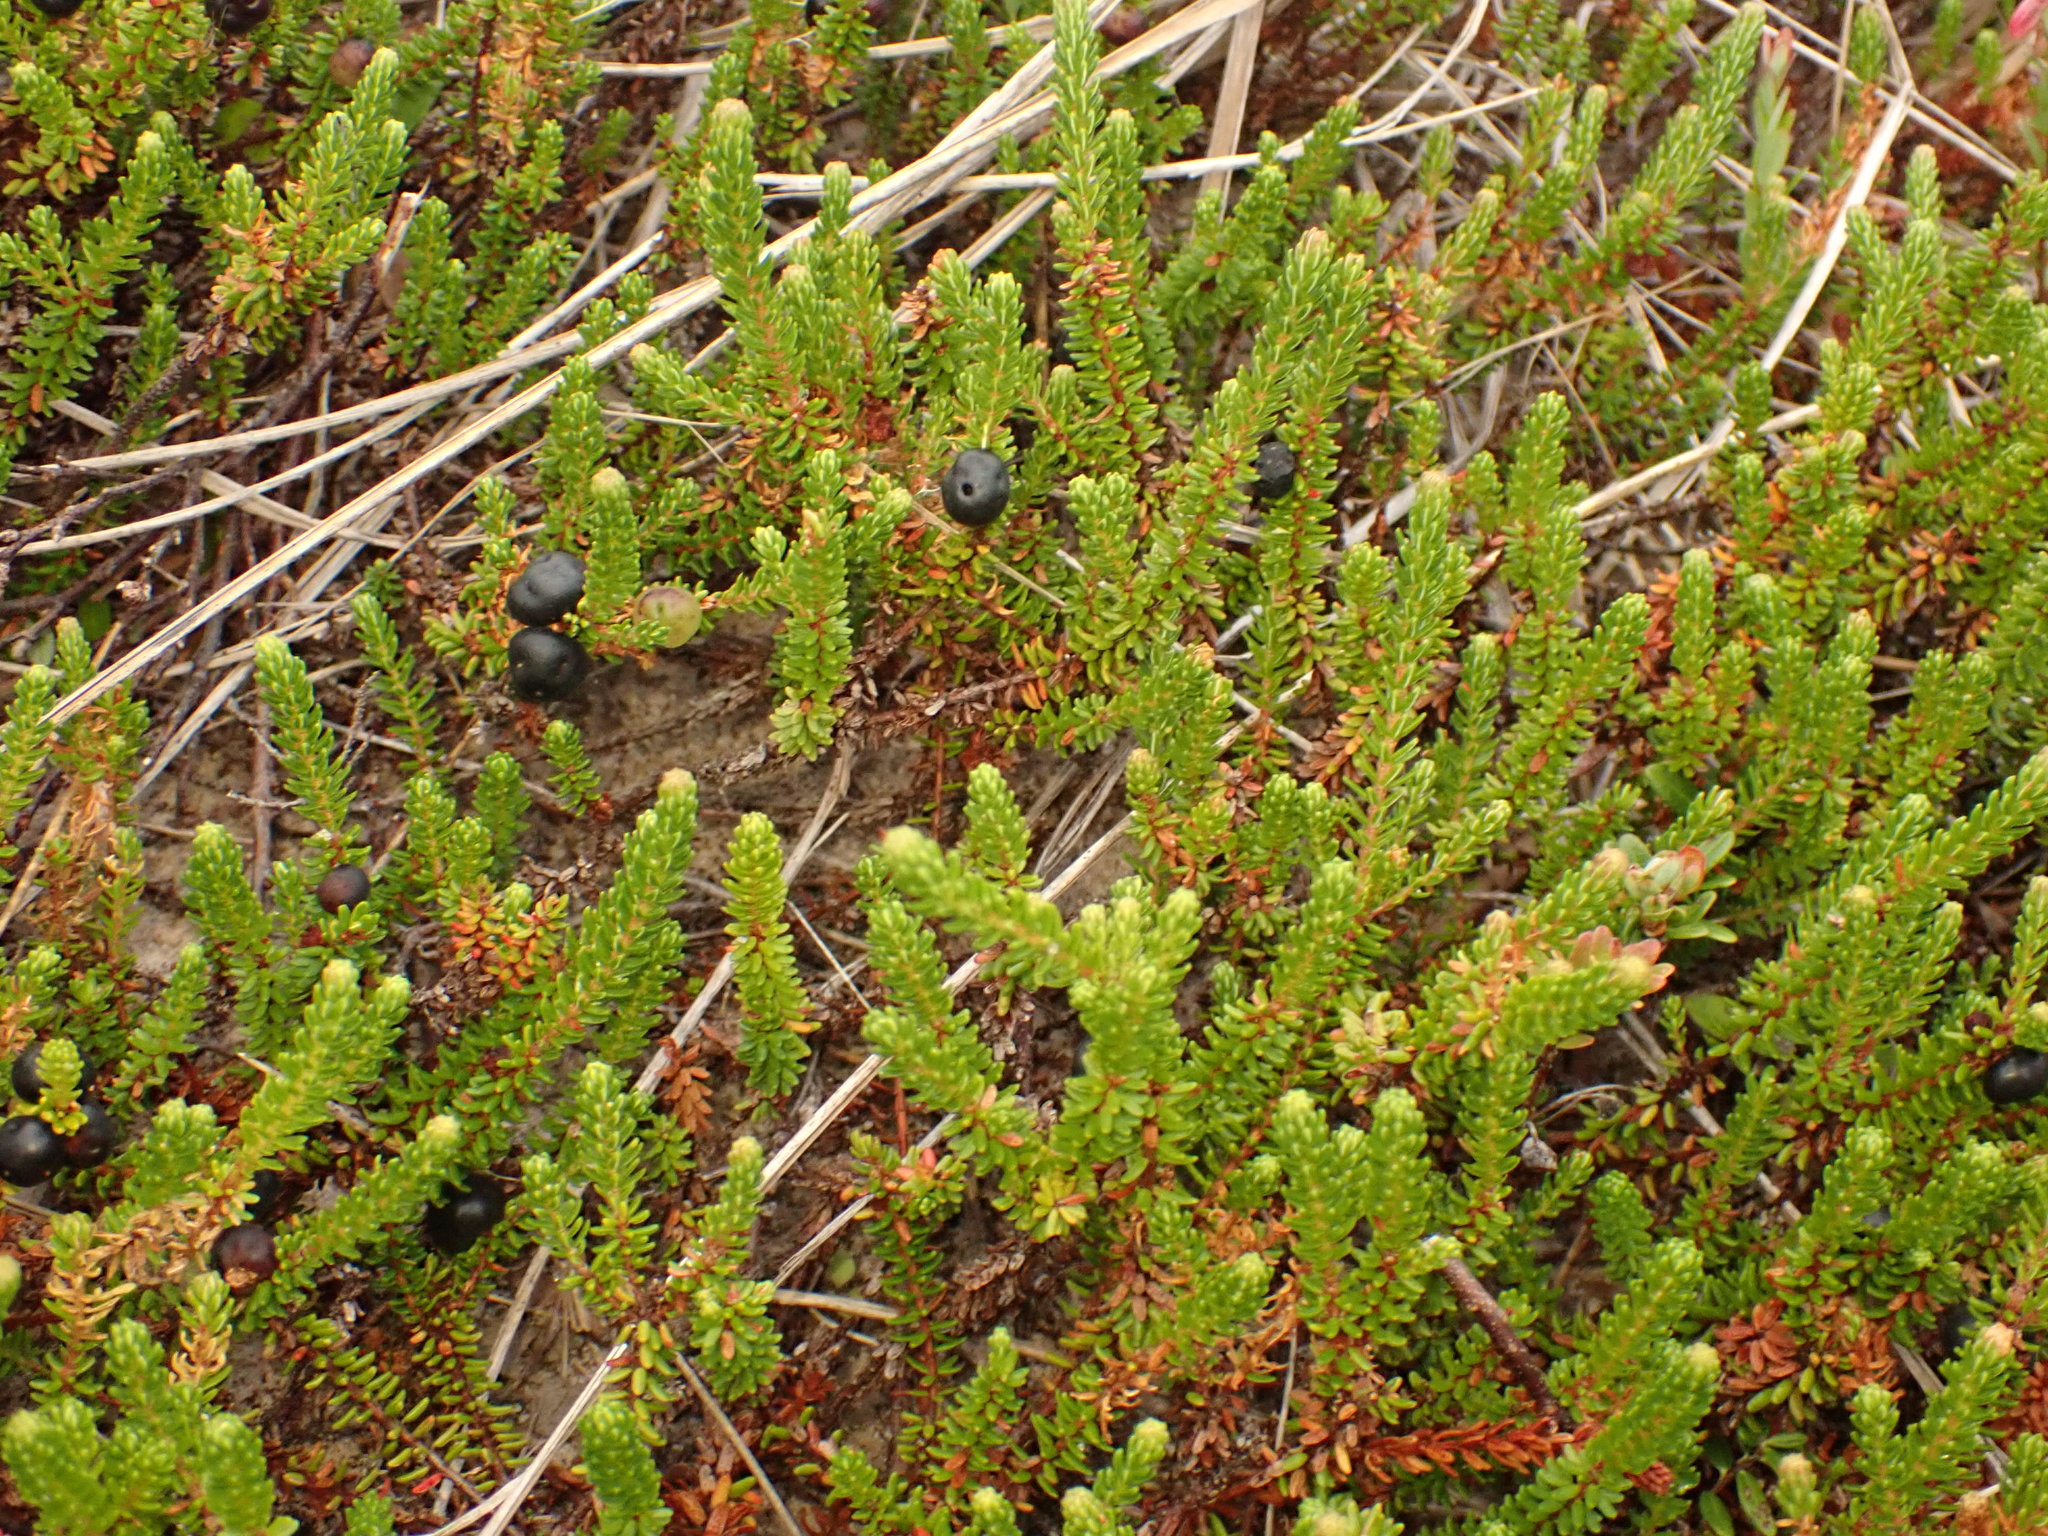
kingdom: Plantae
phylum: Tracheophyta
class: Magnoliopsida
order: Ericales
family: Ericaceae
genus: Empetrum
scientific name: Empetrum nigrum
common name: Black crowberry
